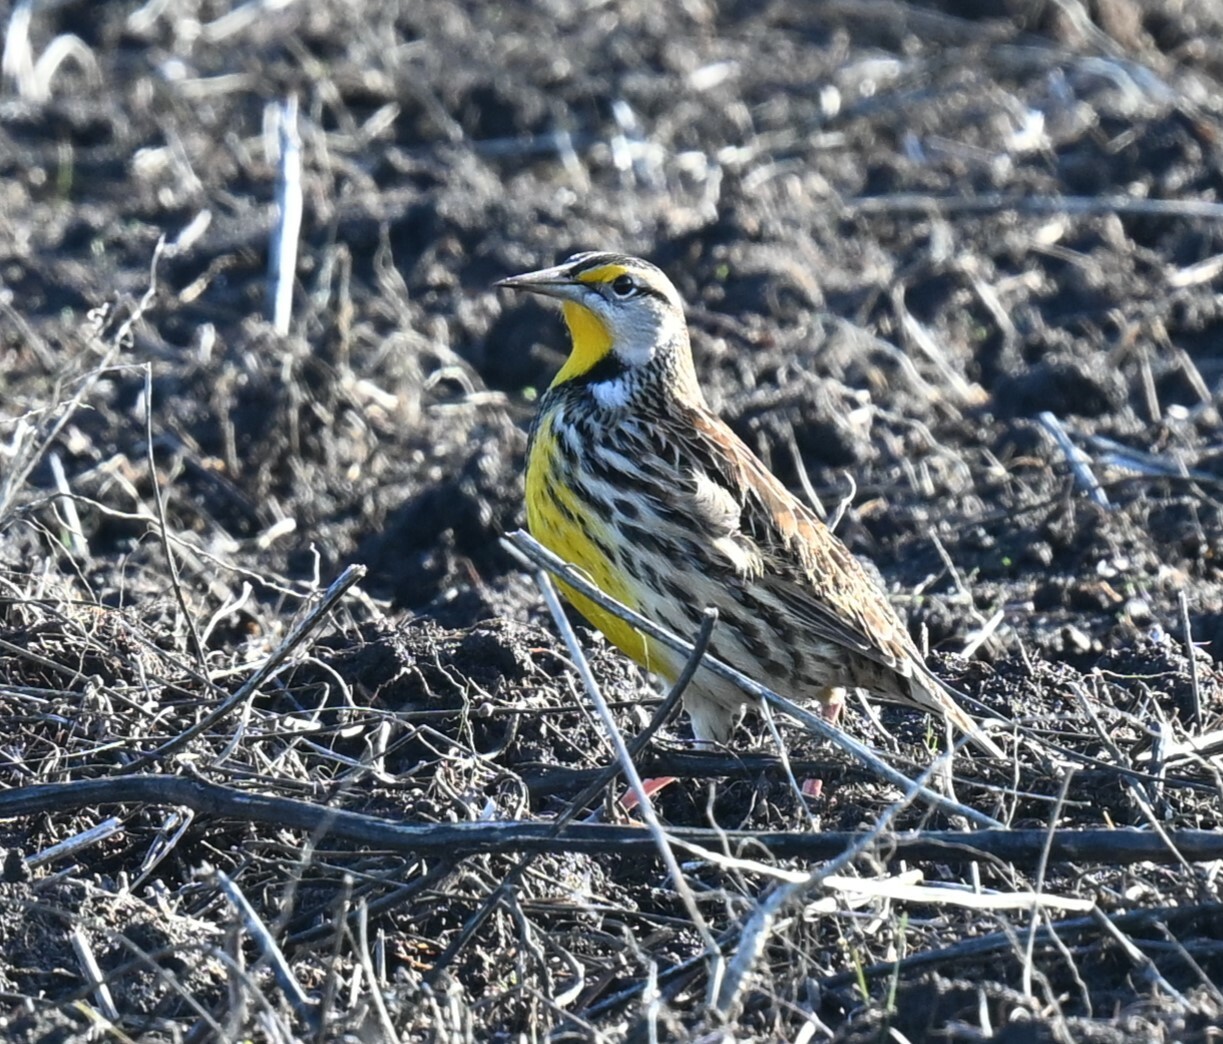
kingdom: Animalia
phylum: Chordata
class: Aves
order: Passeriformes
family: Icteridae
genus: Sturnella
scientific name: Sturnella magna
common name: Eastern meadowlark
